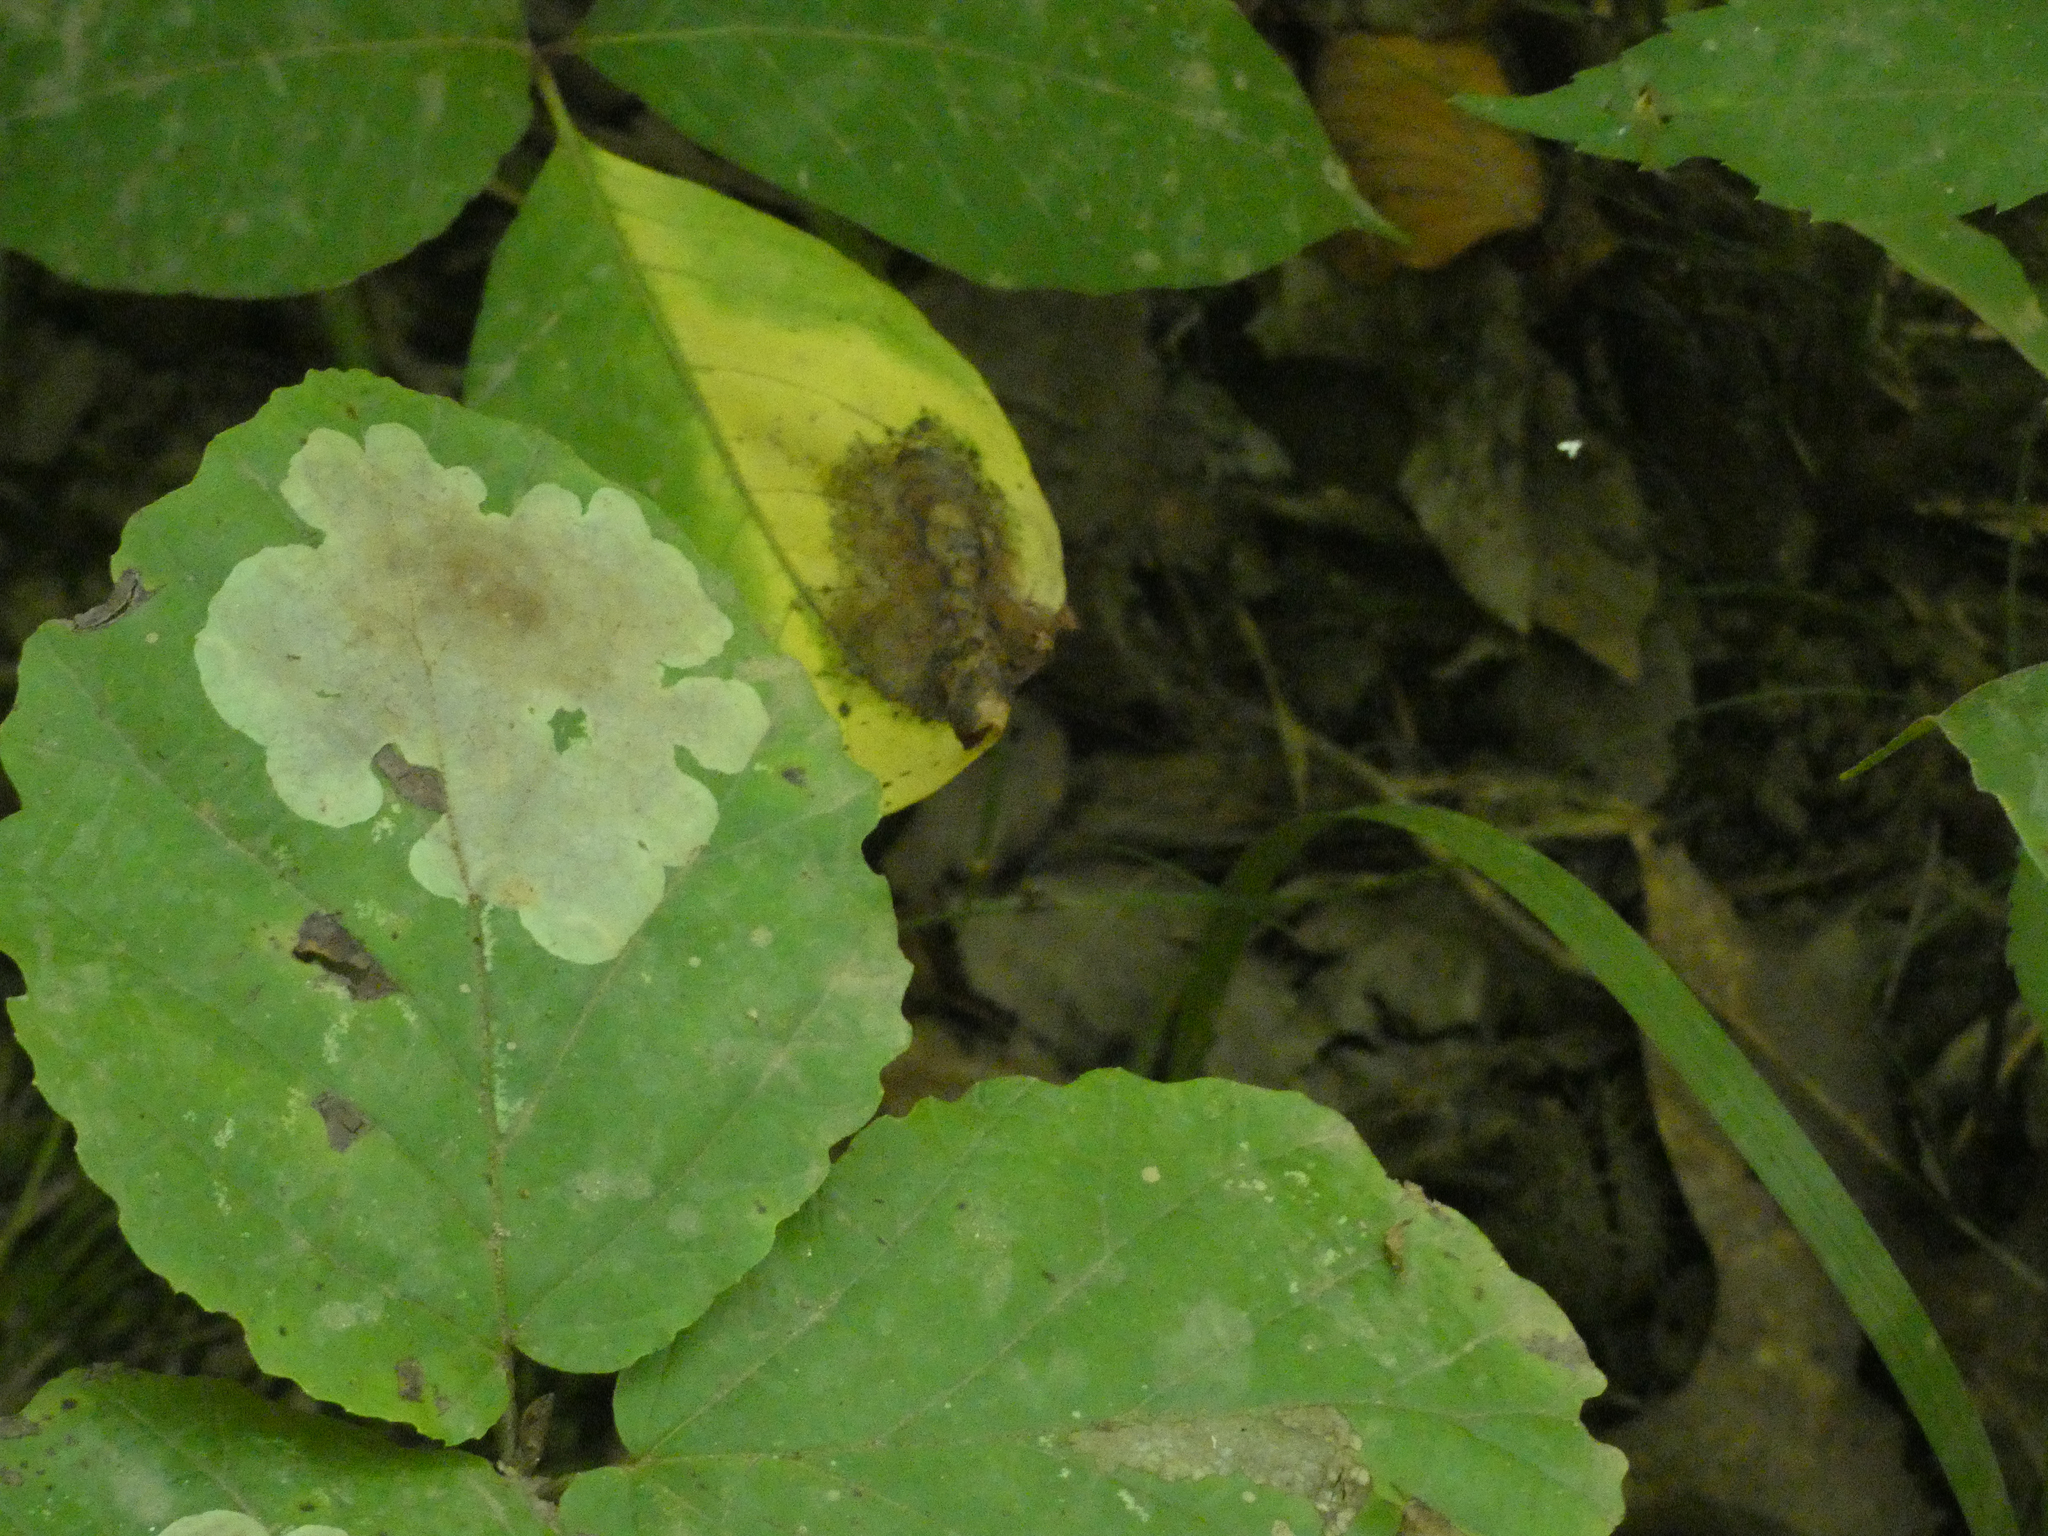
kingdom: Animalia
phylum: Arthropoda
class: Insecta
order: Lepidoptera
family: Gracillariidae
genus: Cameraria
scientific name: Cameraria hamameliella
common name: Witchhazel leafminer
